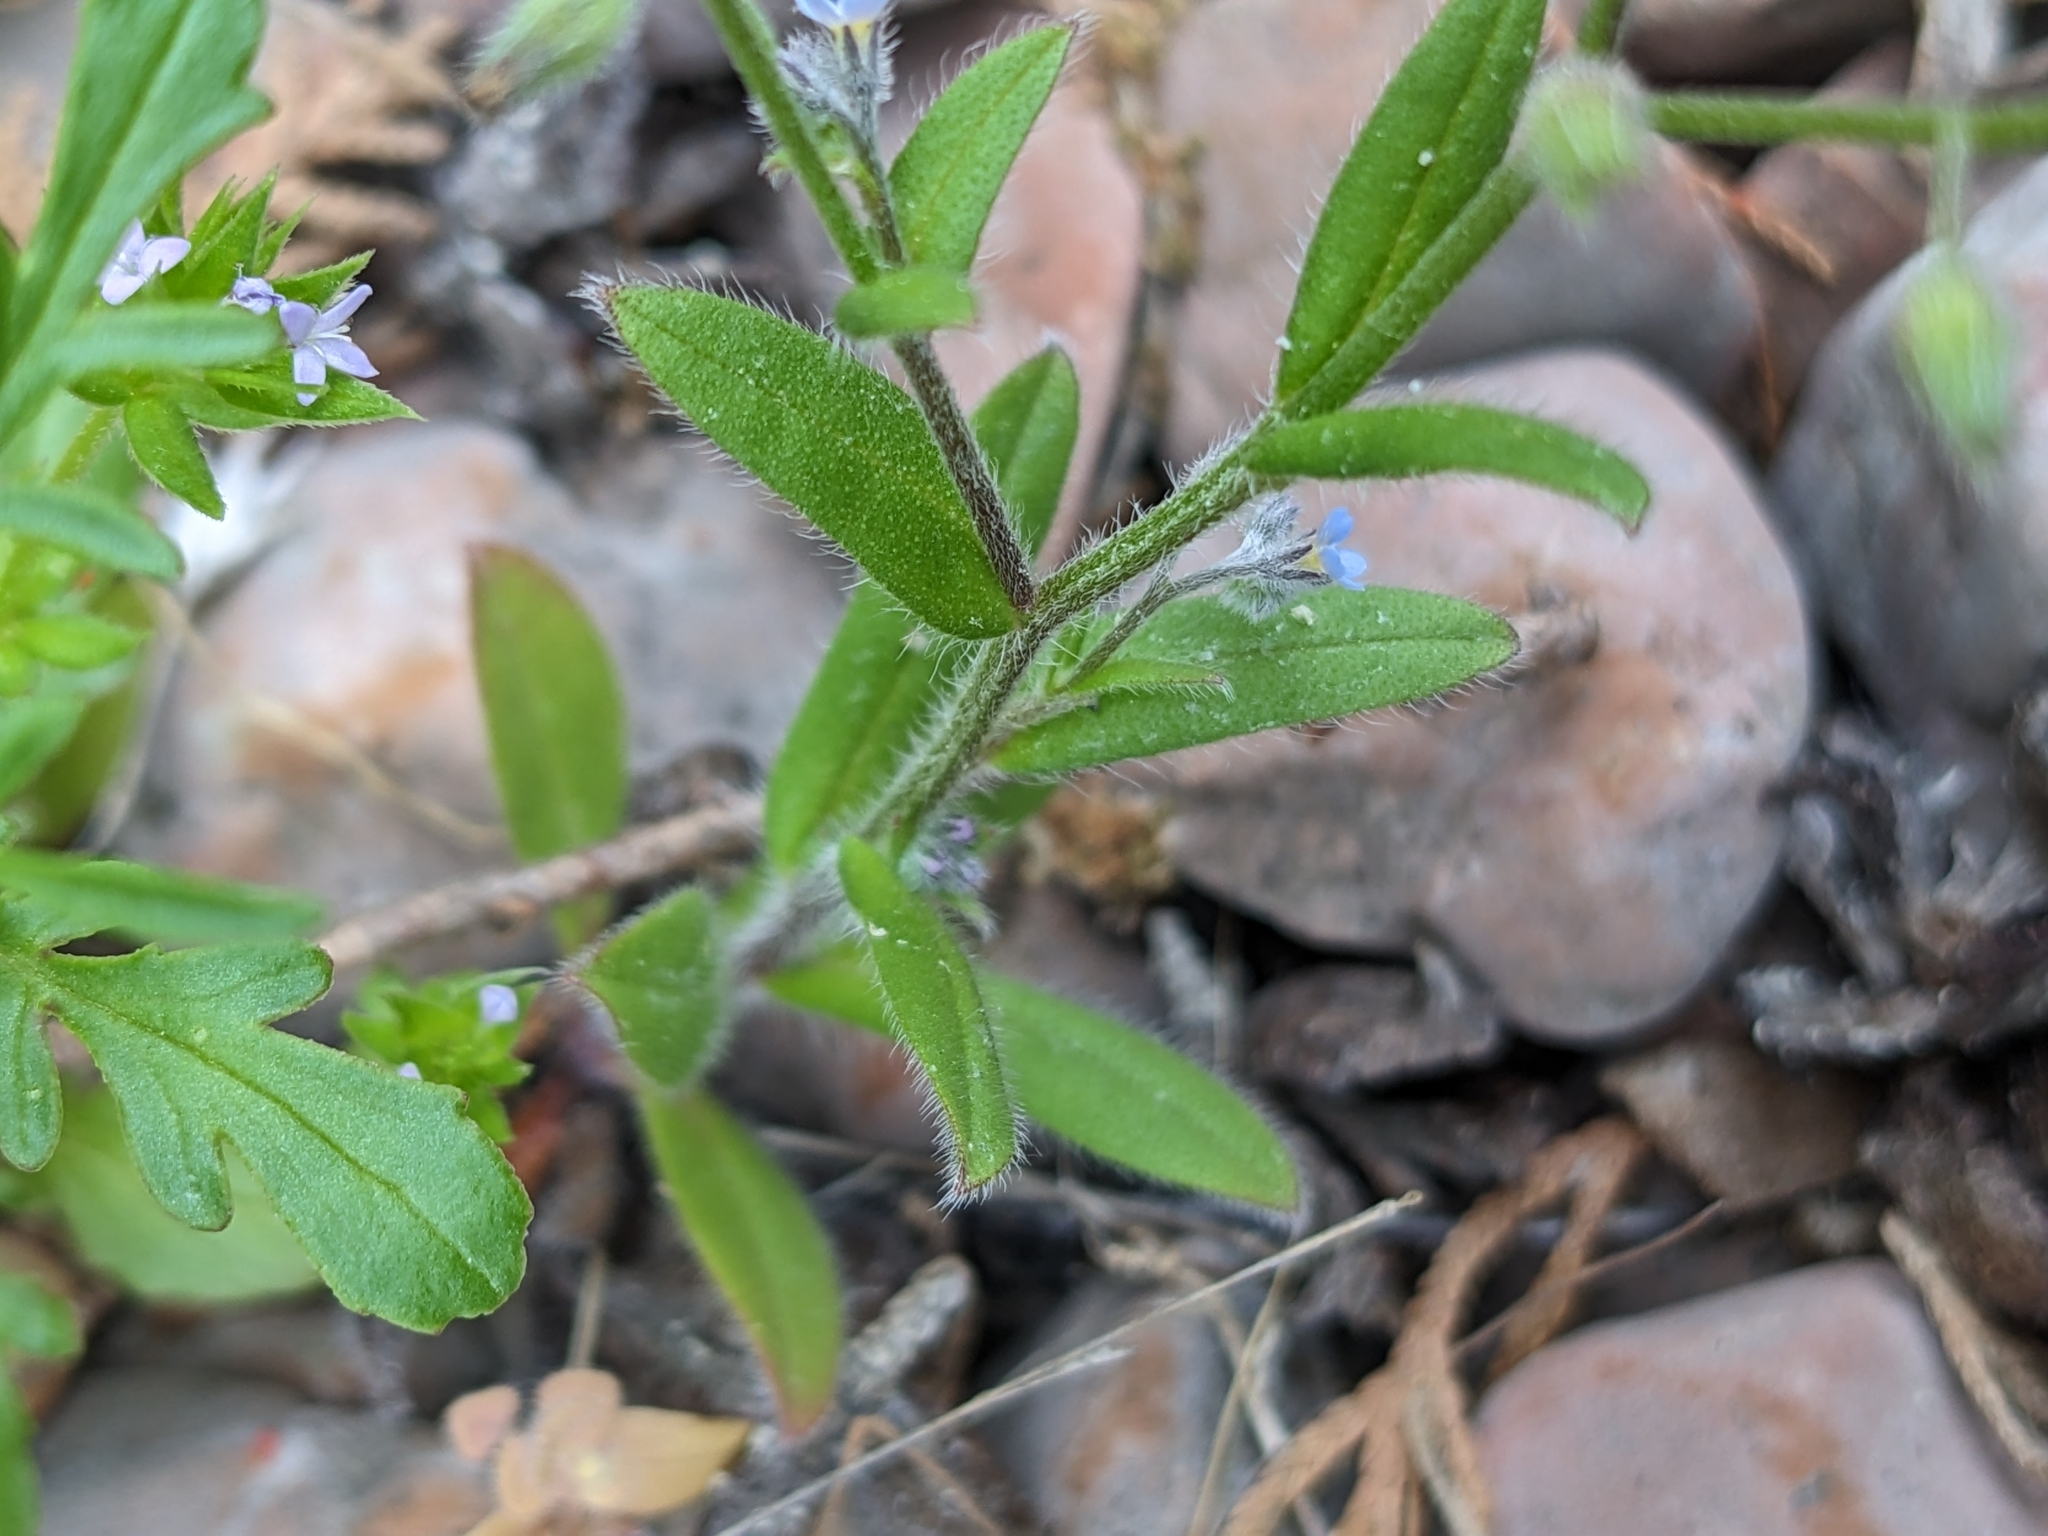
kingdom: Plantae
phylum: Tracheophyta
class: Magnoliopsida
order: Boraginales
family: Boraginaceae
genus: Myosotis
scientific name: Myosotis arvensis
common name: Field forget-me-not
